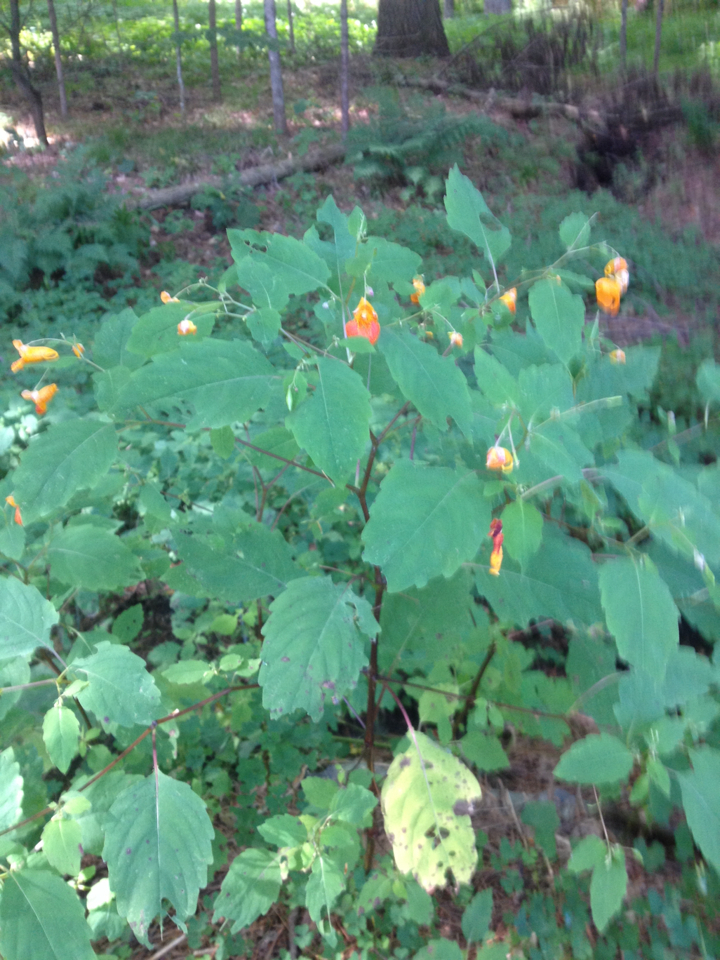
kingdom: Plantae
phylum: Tracheophyta
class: Magnoliopsida
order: Ericales
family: Balsaminaceae
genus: Impatiens
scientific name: Impatiens capensis
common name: Orange balsam
